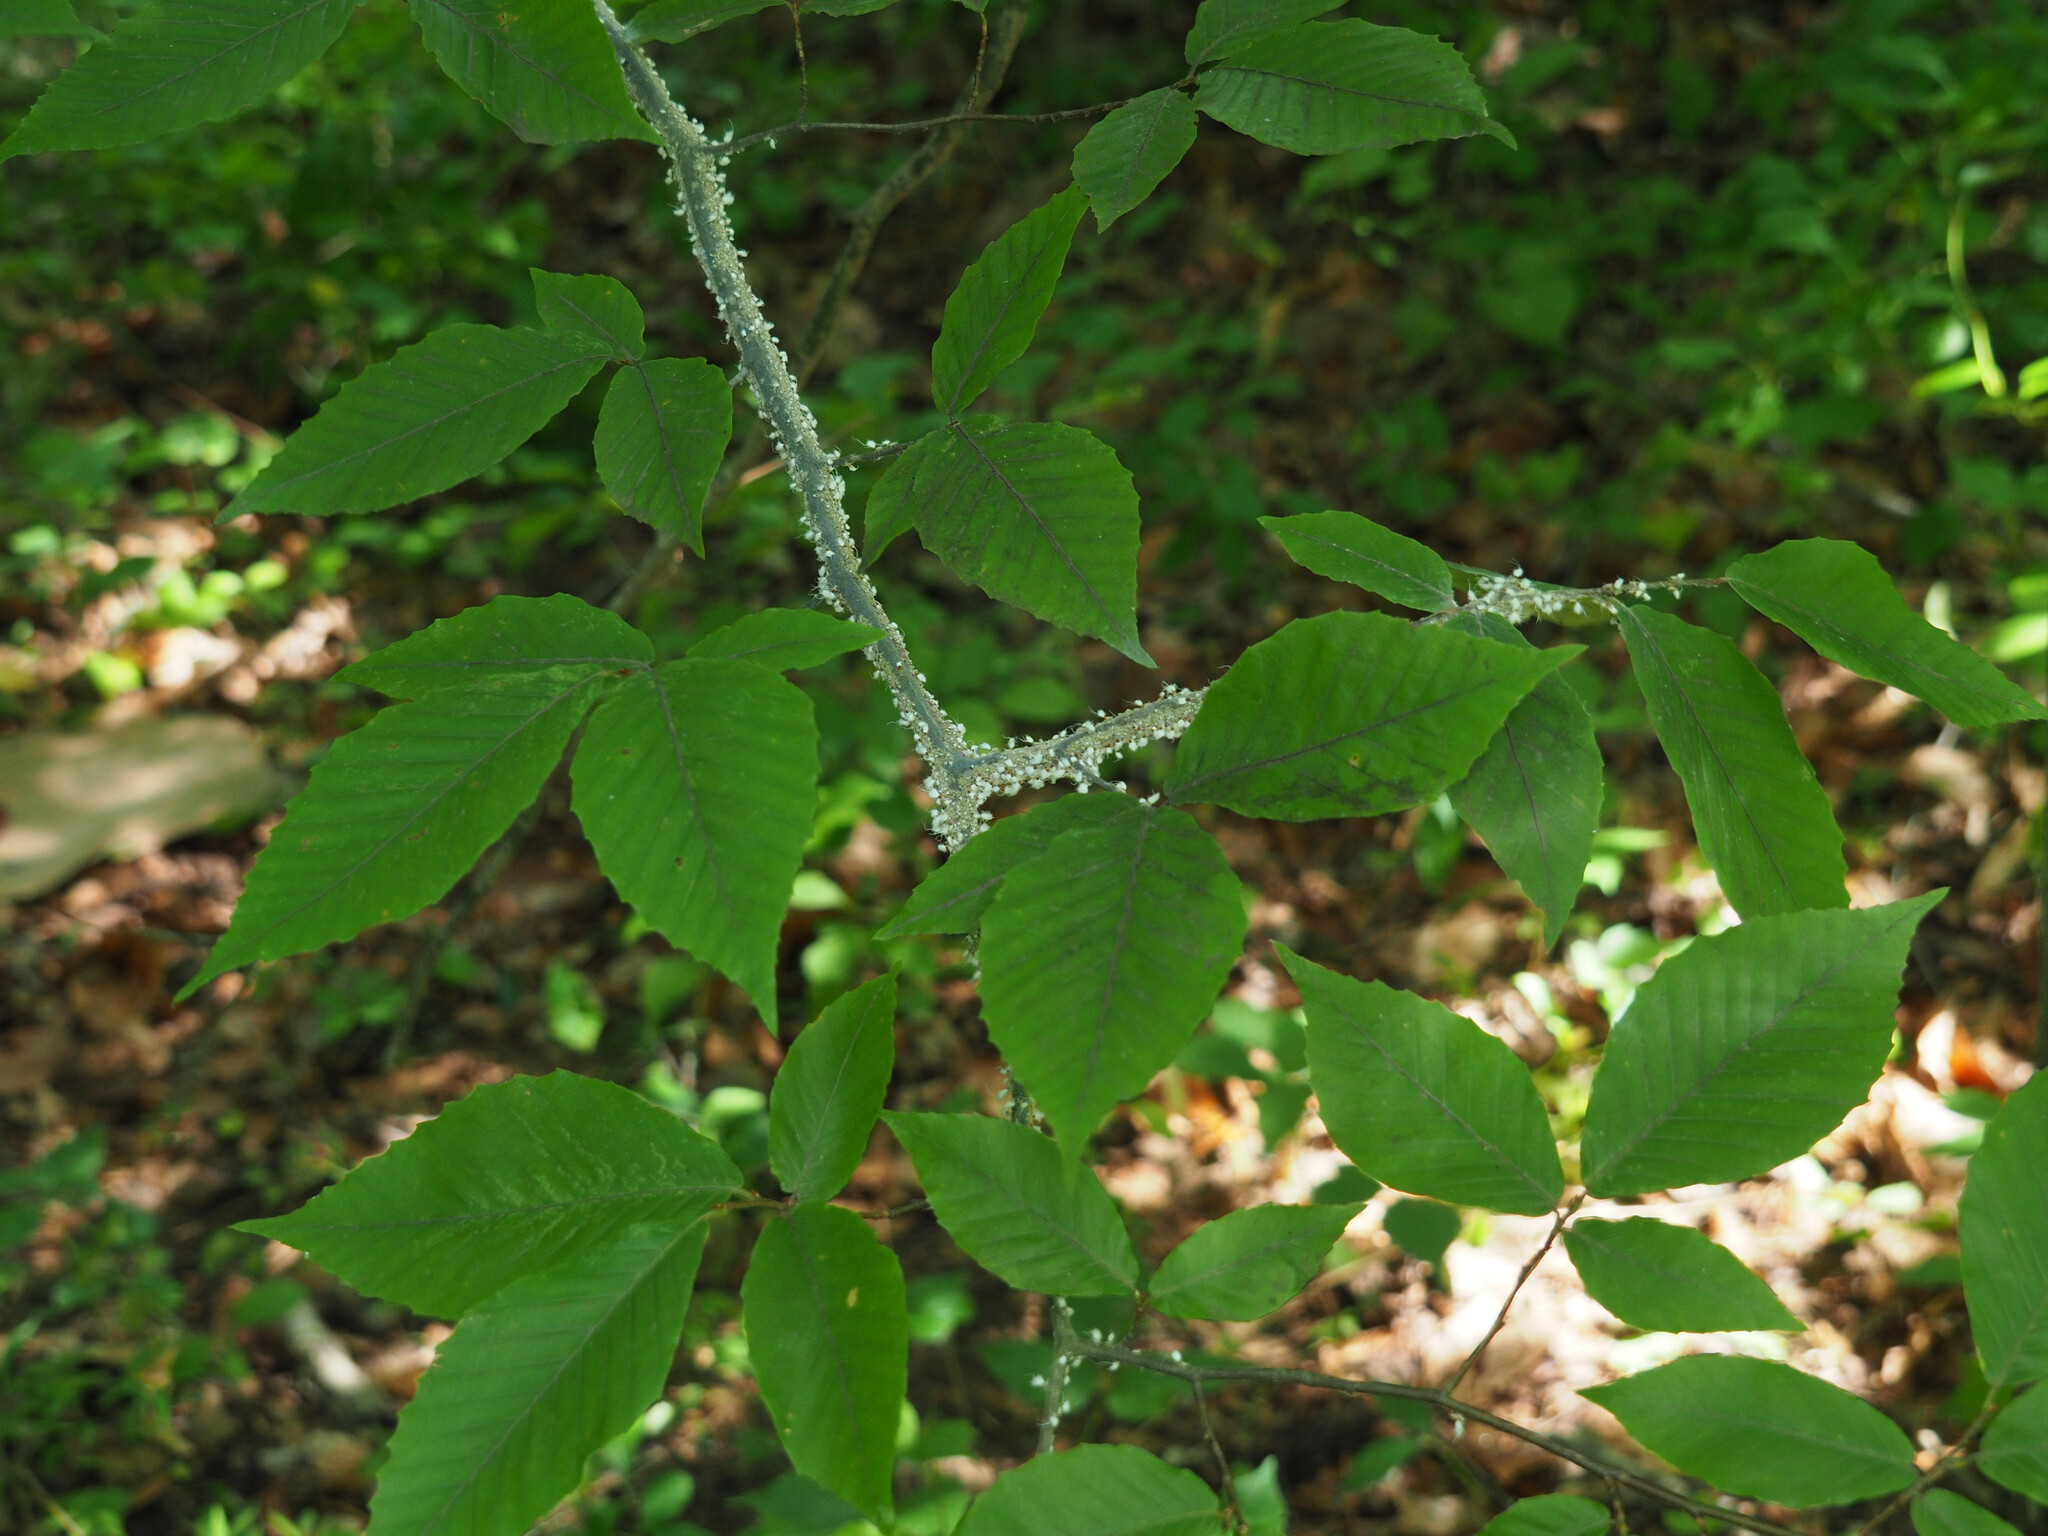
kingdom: Animalia
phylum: Arthropoda
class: Insecta
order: Hemiptera
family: Aphididae
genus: Grylloprociphilus
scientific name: Grylloprociphilus imbricator
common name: Beech blight aphid
